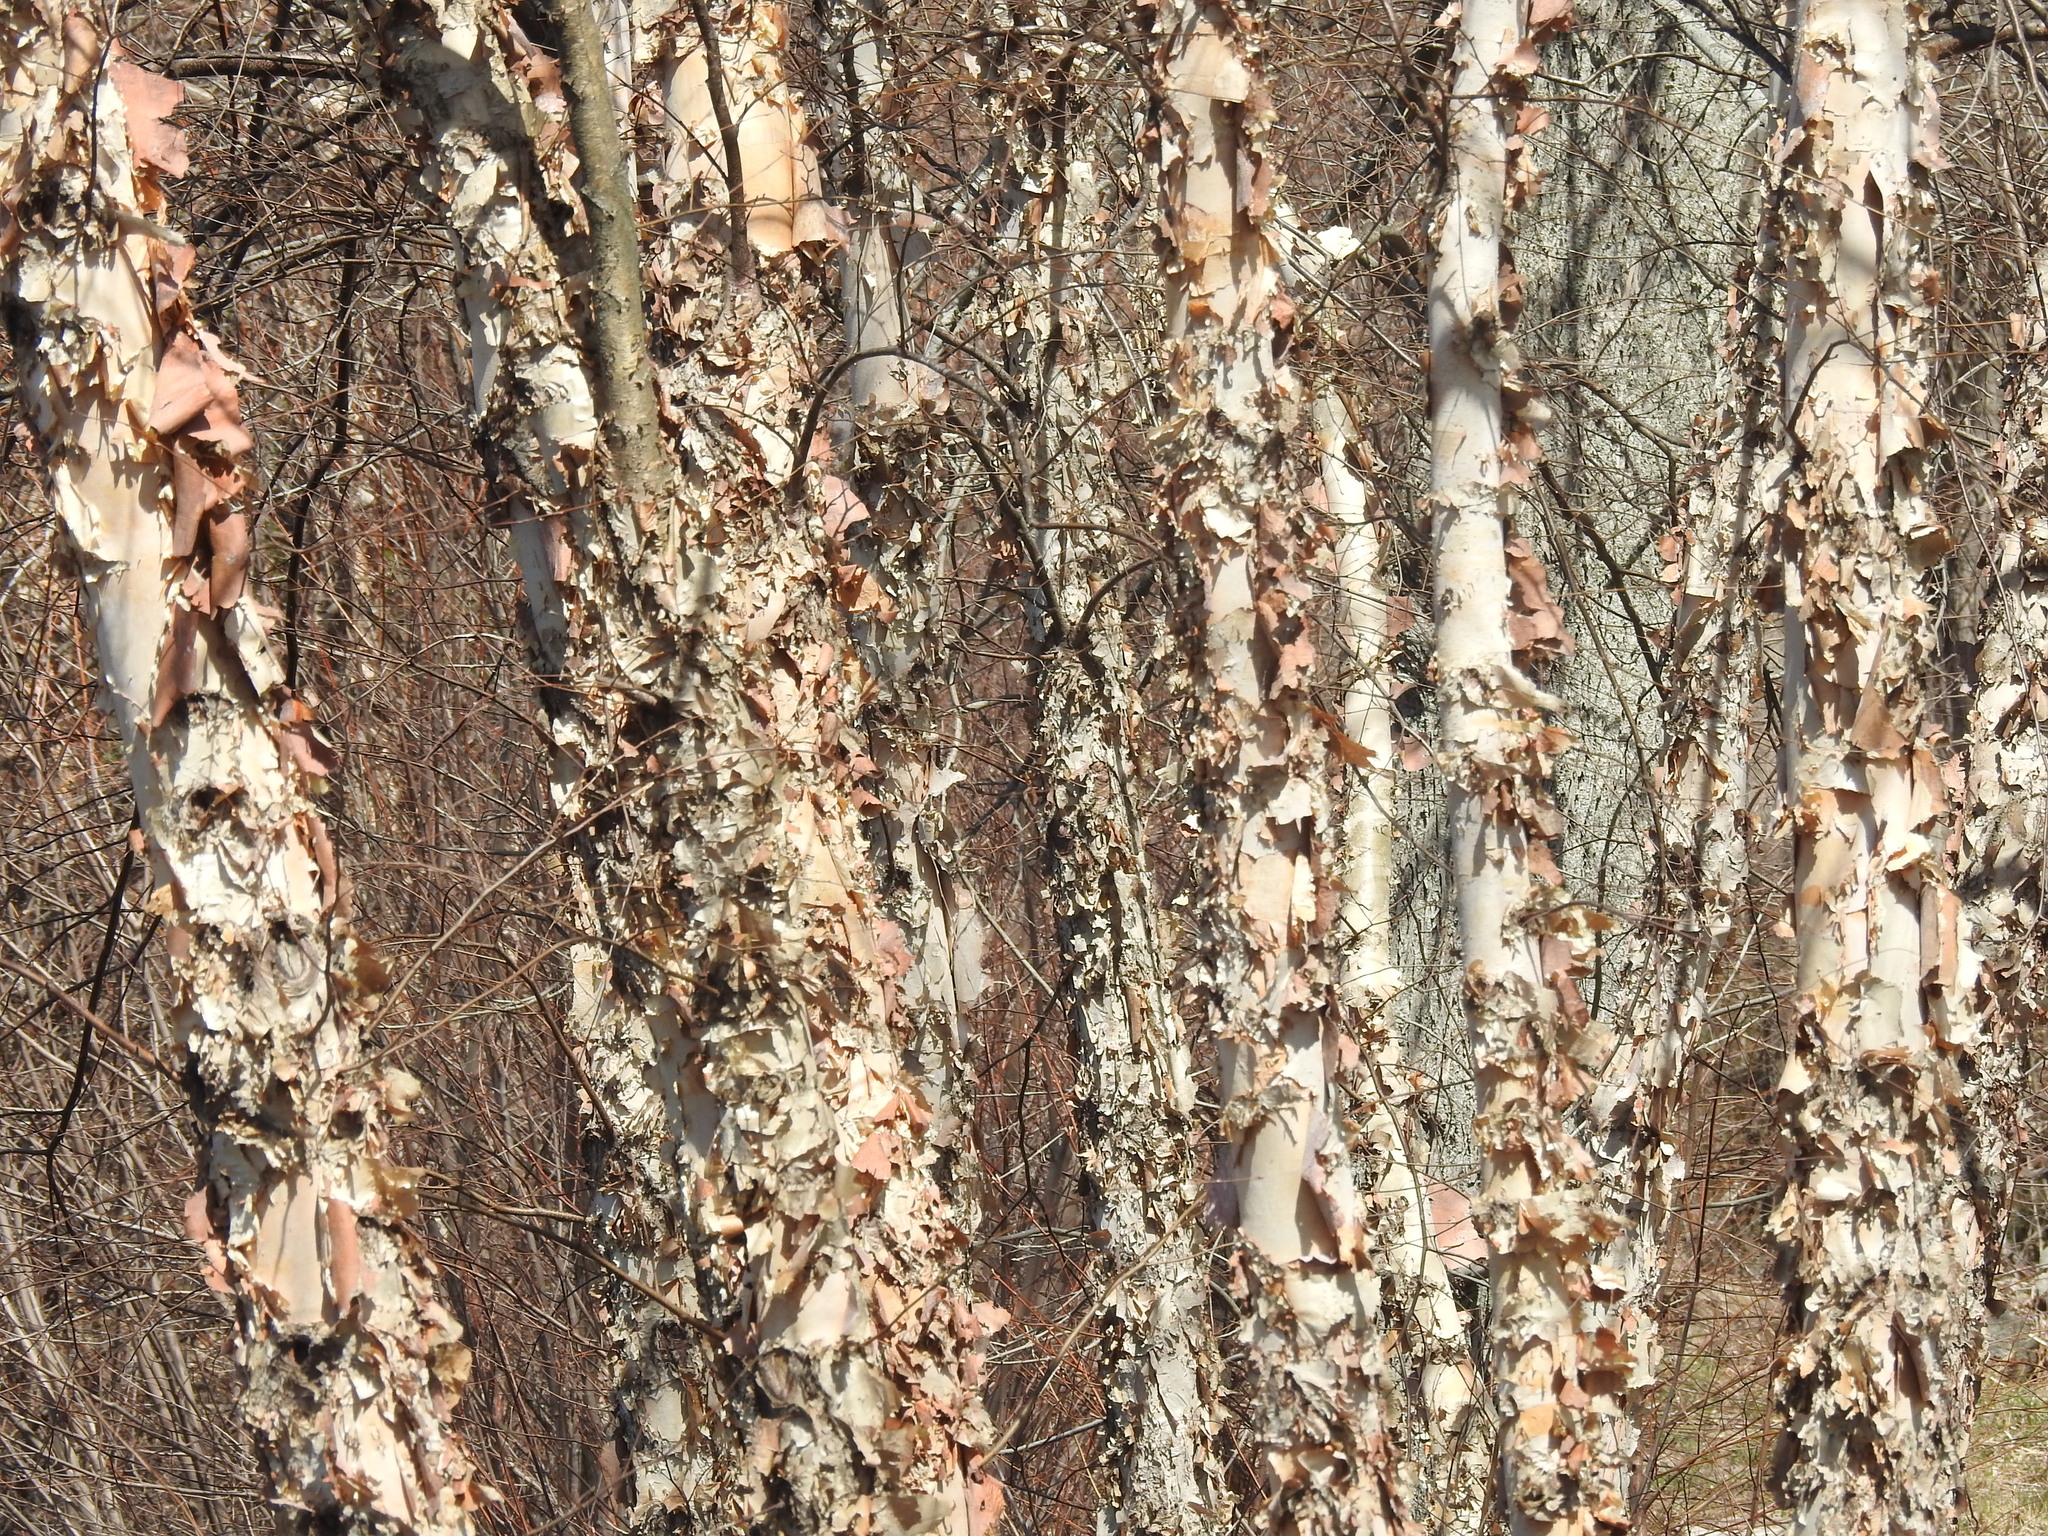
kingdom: Plantae
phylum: Tracheophyta
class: Magnoliopsida
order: Fagales
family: Betulaceae
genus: Betula
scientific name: Betula nigra
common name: Black birch
